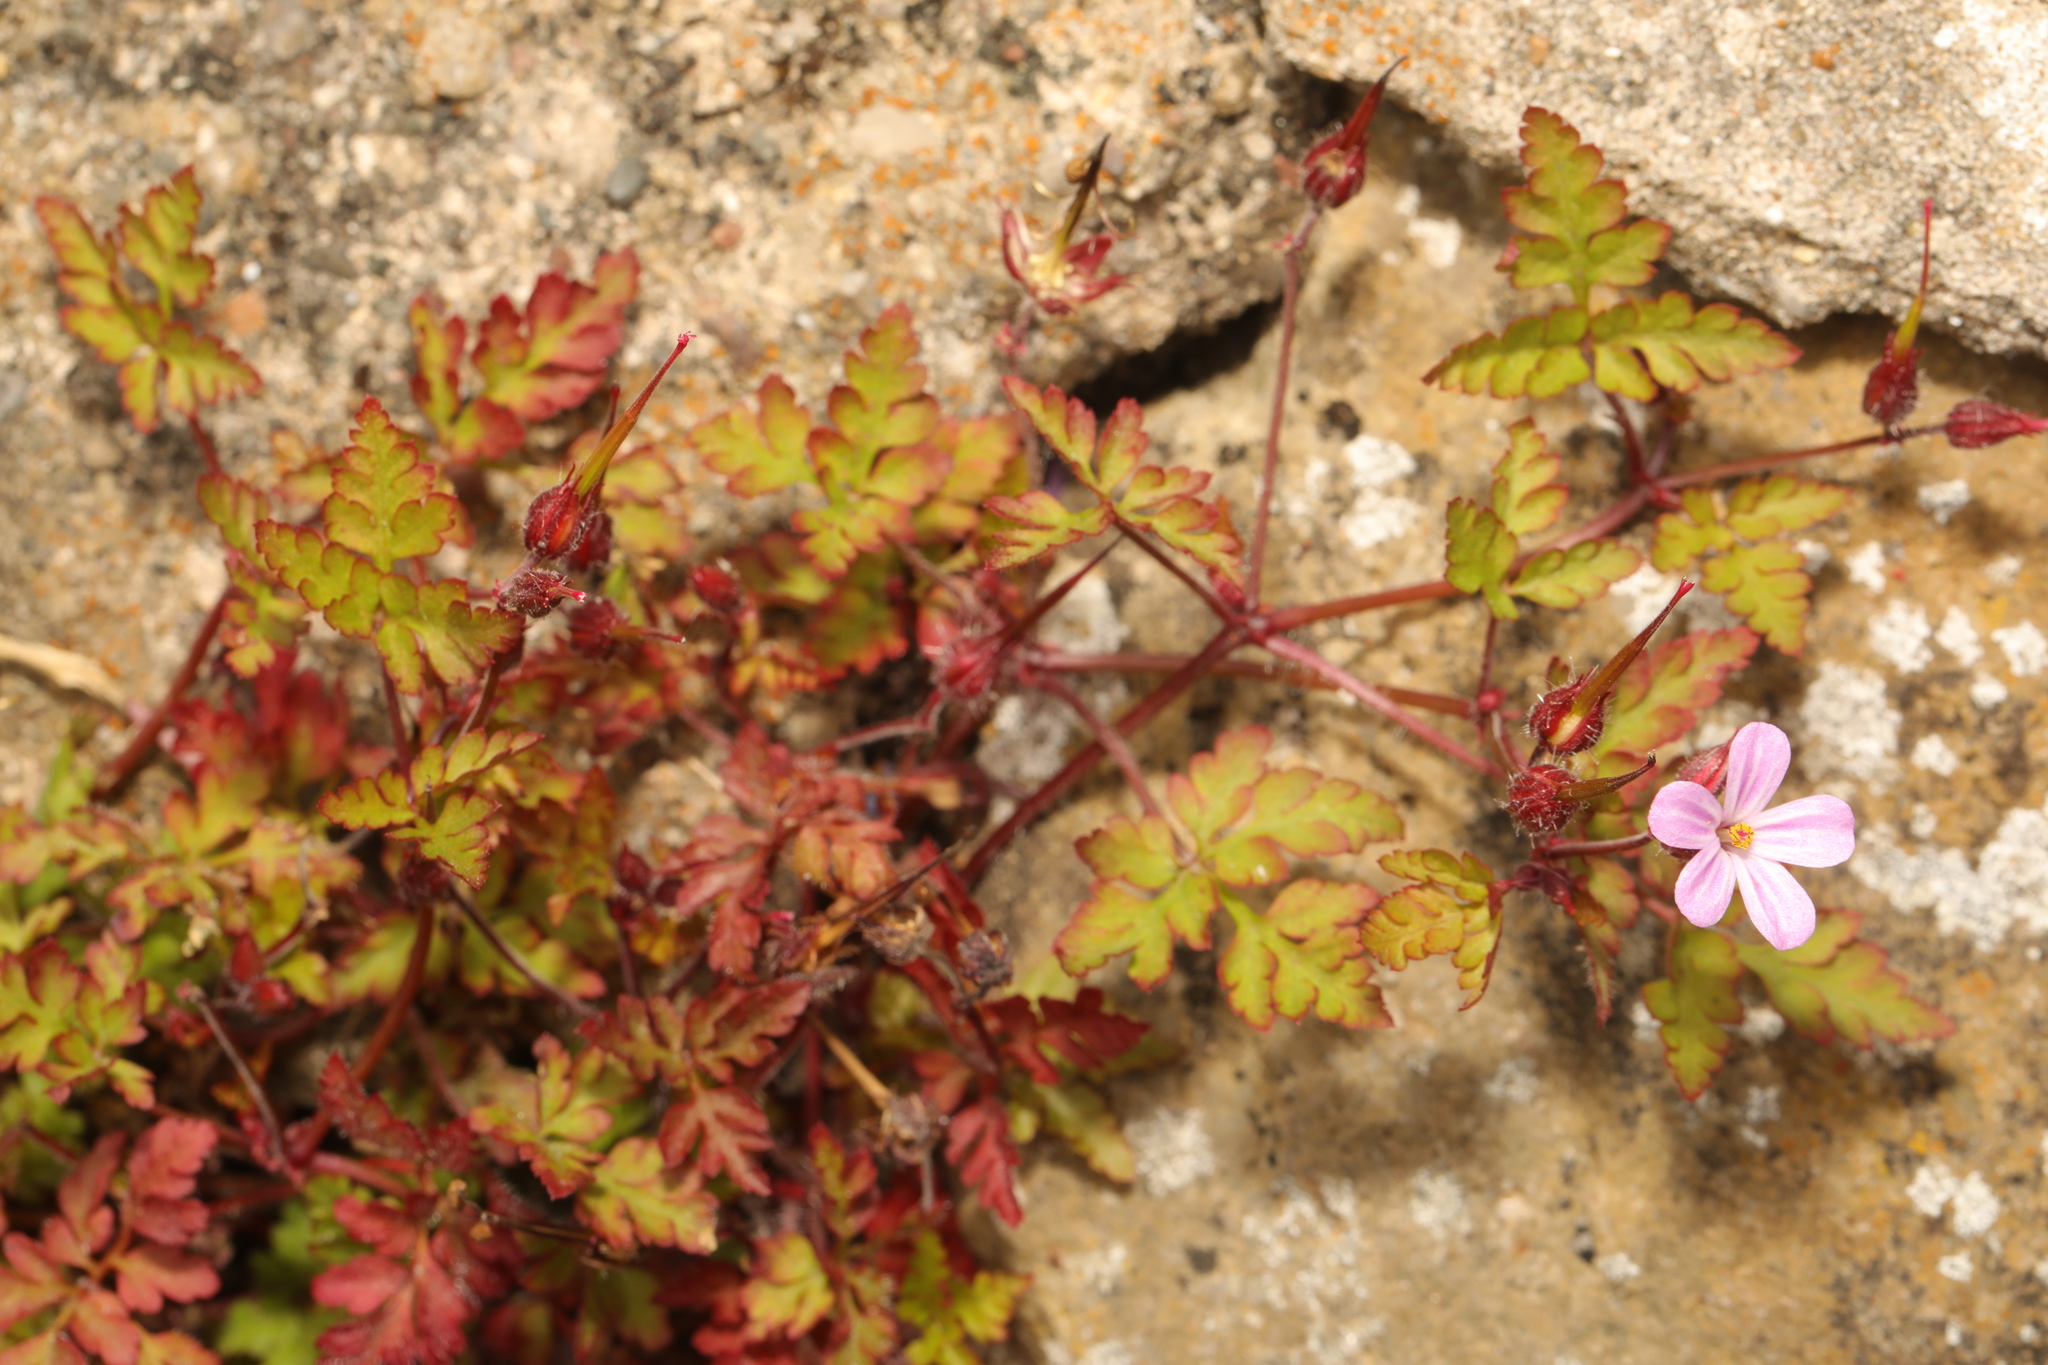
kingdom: Plantae
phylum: Tracheophyta
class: Magnoliopsida
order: Geraniales
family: Geraniaceae
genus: Geranium
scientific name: Geranium robertianum
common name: Herb-robert
